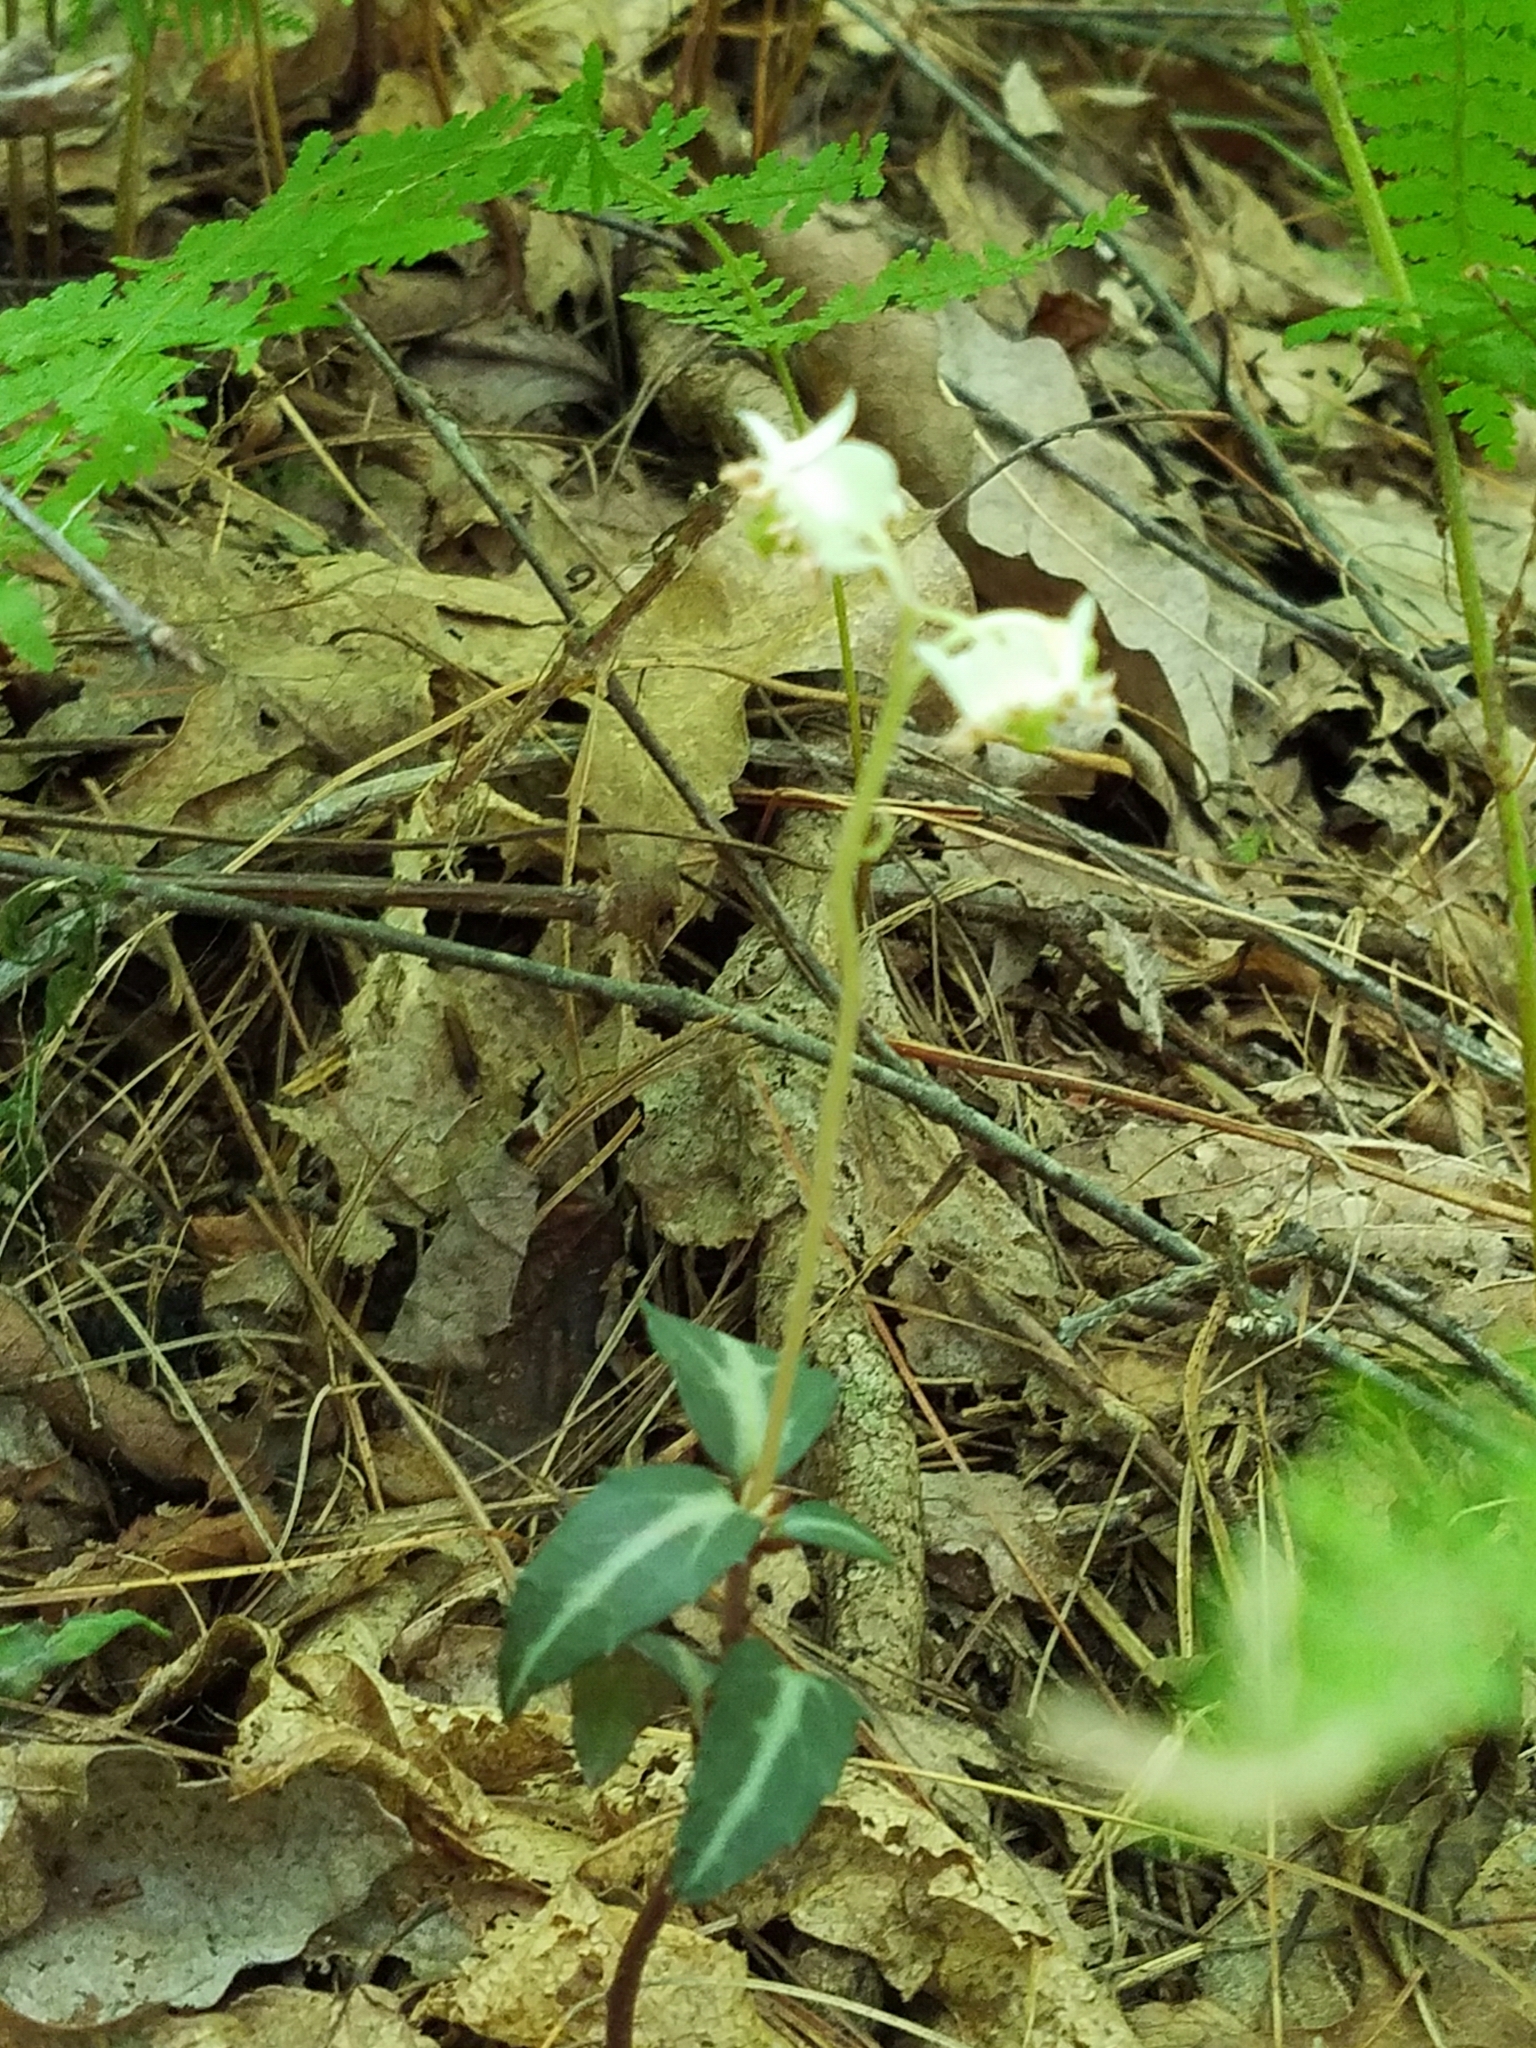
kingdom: Plantae
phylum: Tracheophyta
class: Magnoliopsida
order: Ericales
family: Ericaceae
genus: Chimaphila
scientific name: Chimaphila maculata
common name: Spotted pipsissewa
